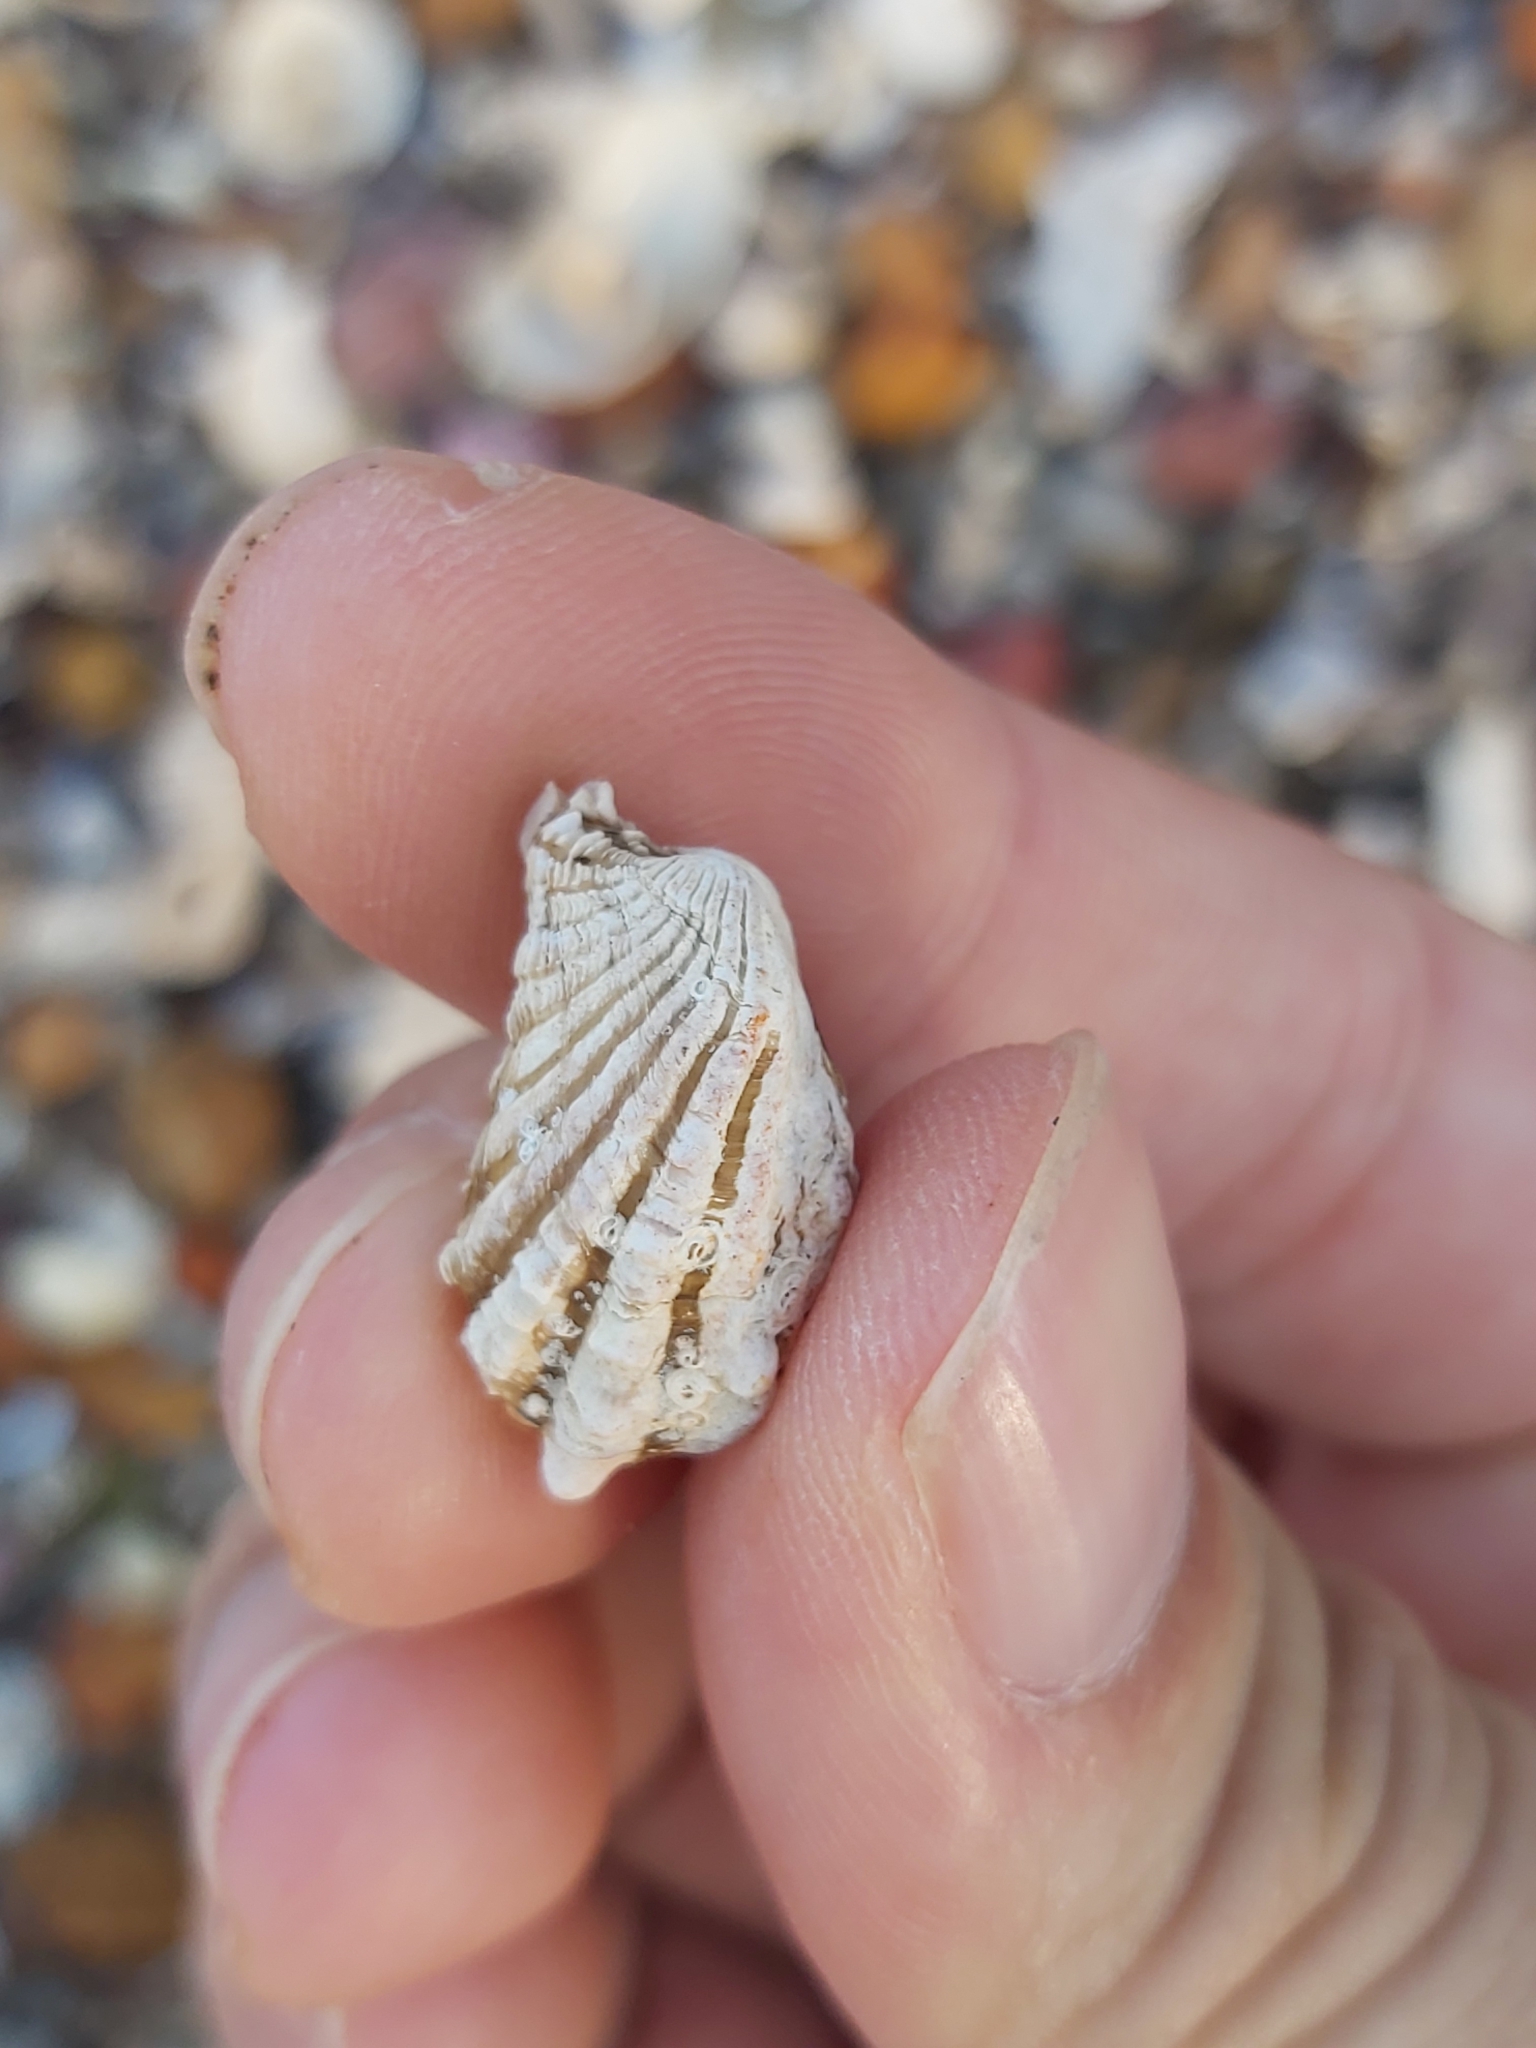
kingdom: Animalia
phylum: Mollusca
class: Bivalvia
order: Carditida
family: Carditidae
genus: Cardita
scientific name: Cardita aviculina
